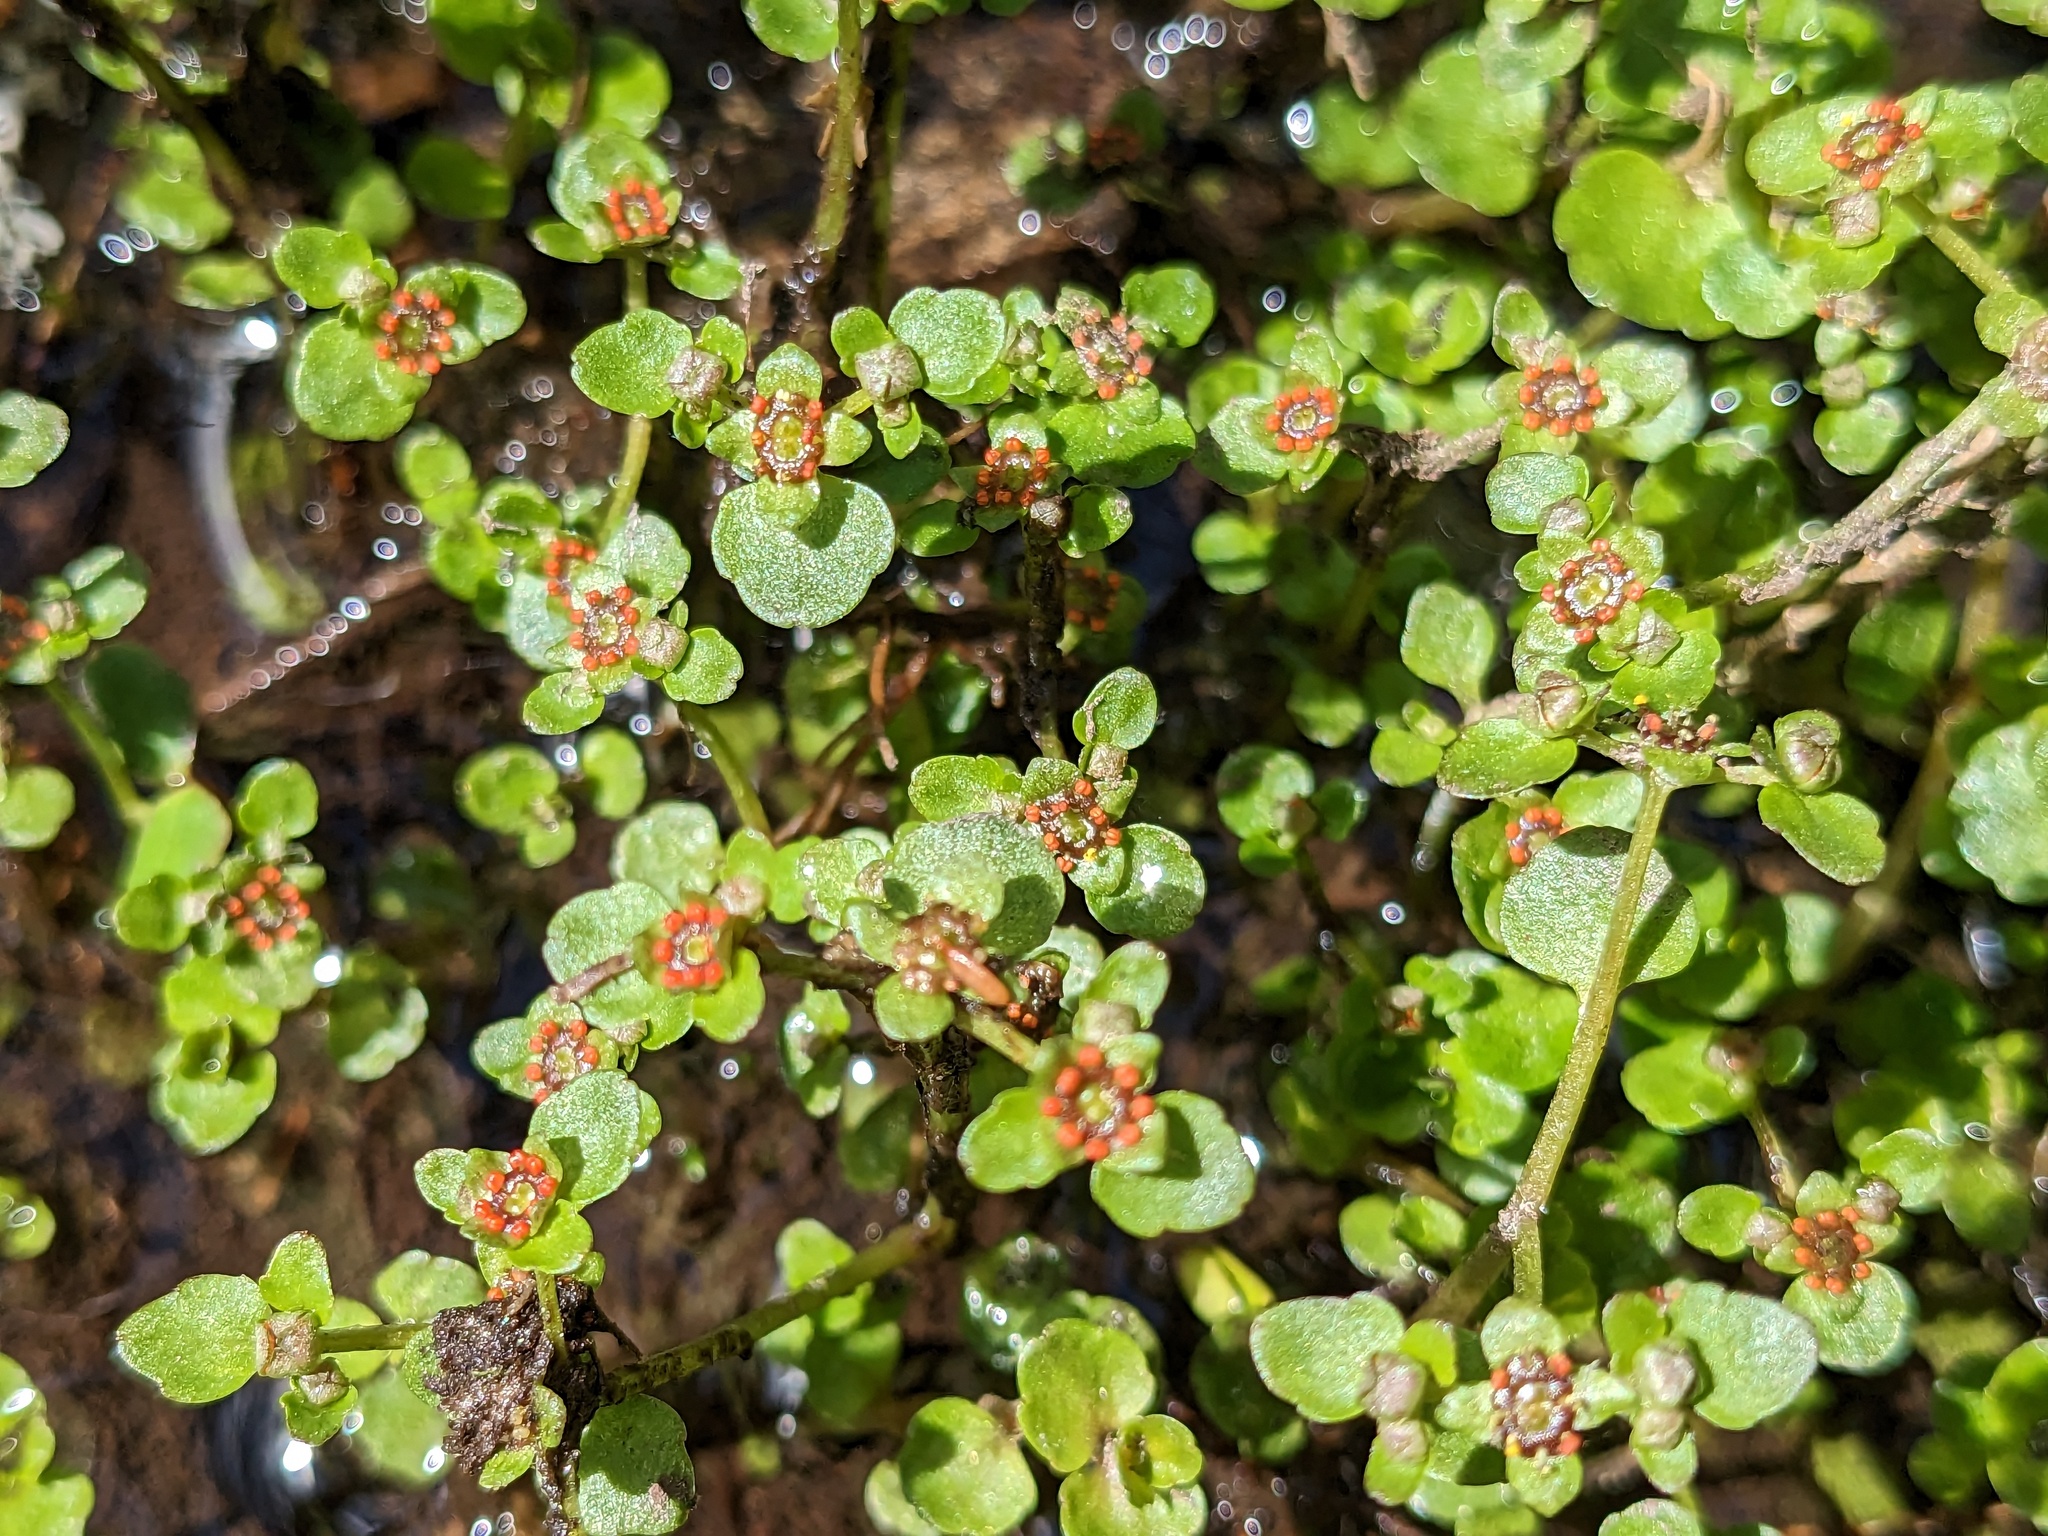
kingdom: Plantae
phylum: Tracheophyta
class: Magnoliopsida
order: Saxifragales
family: Saxifragaceae
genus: Chrysosplenium
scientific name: Chrysosplenium americanum
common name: American golden-saxifrage
